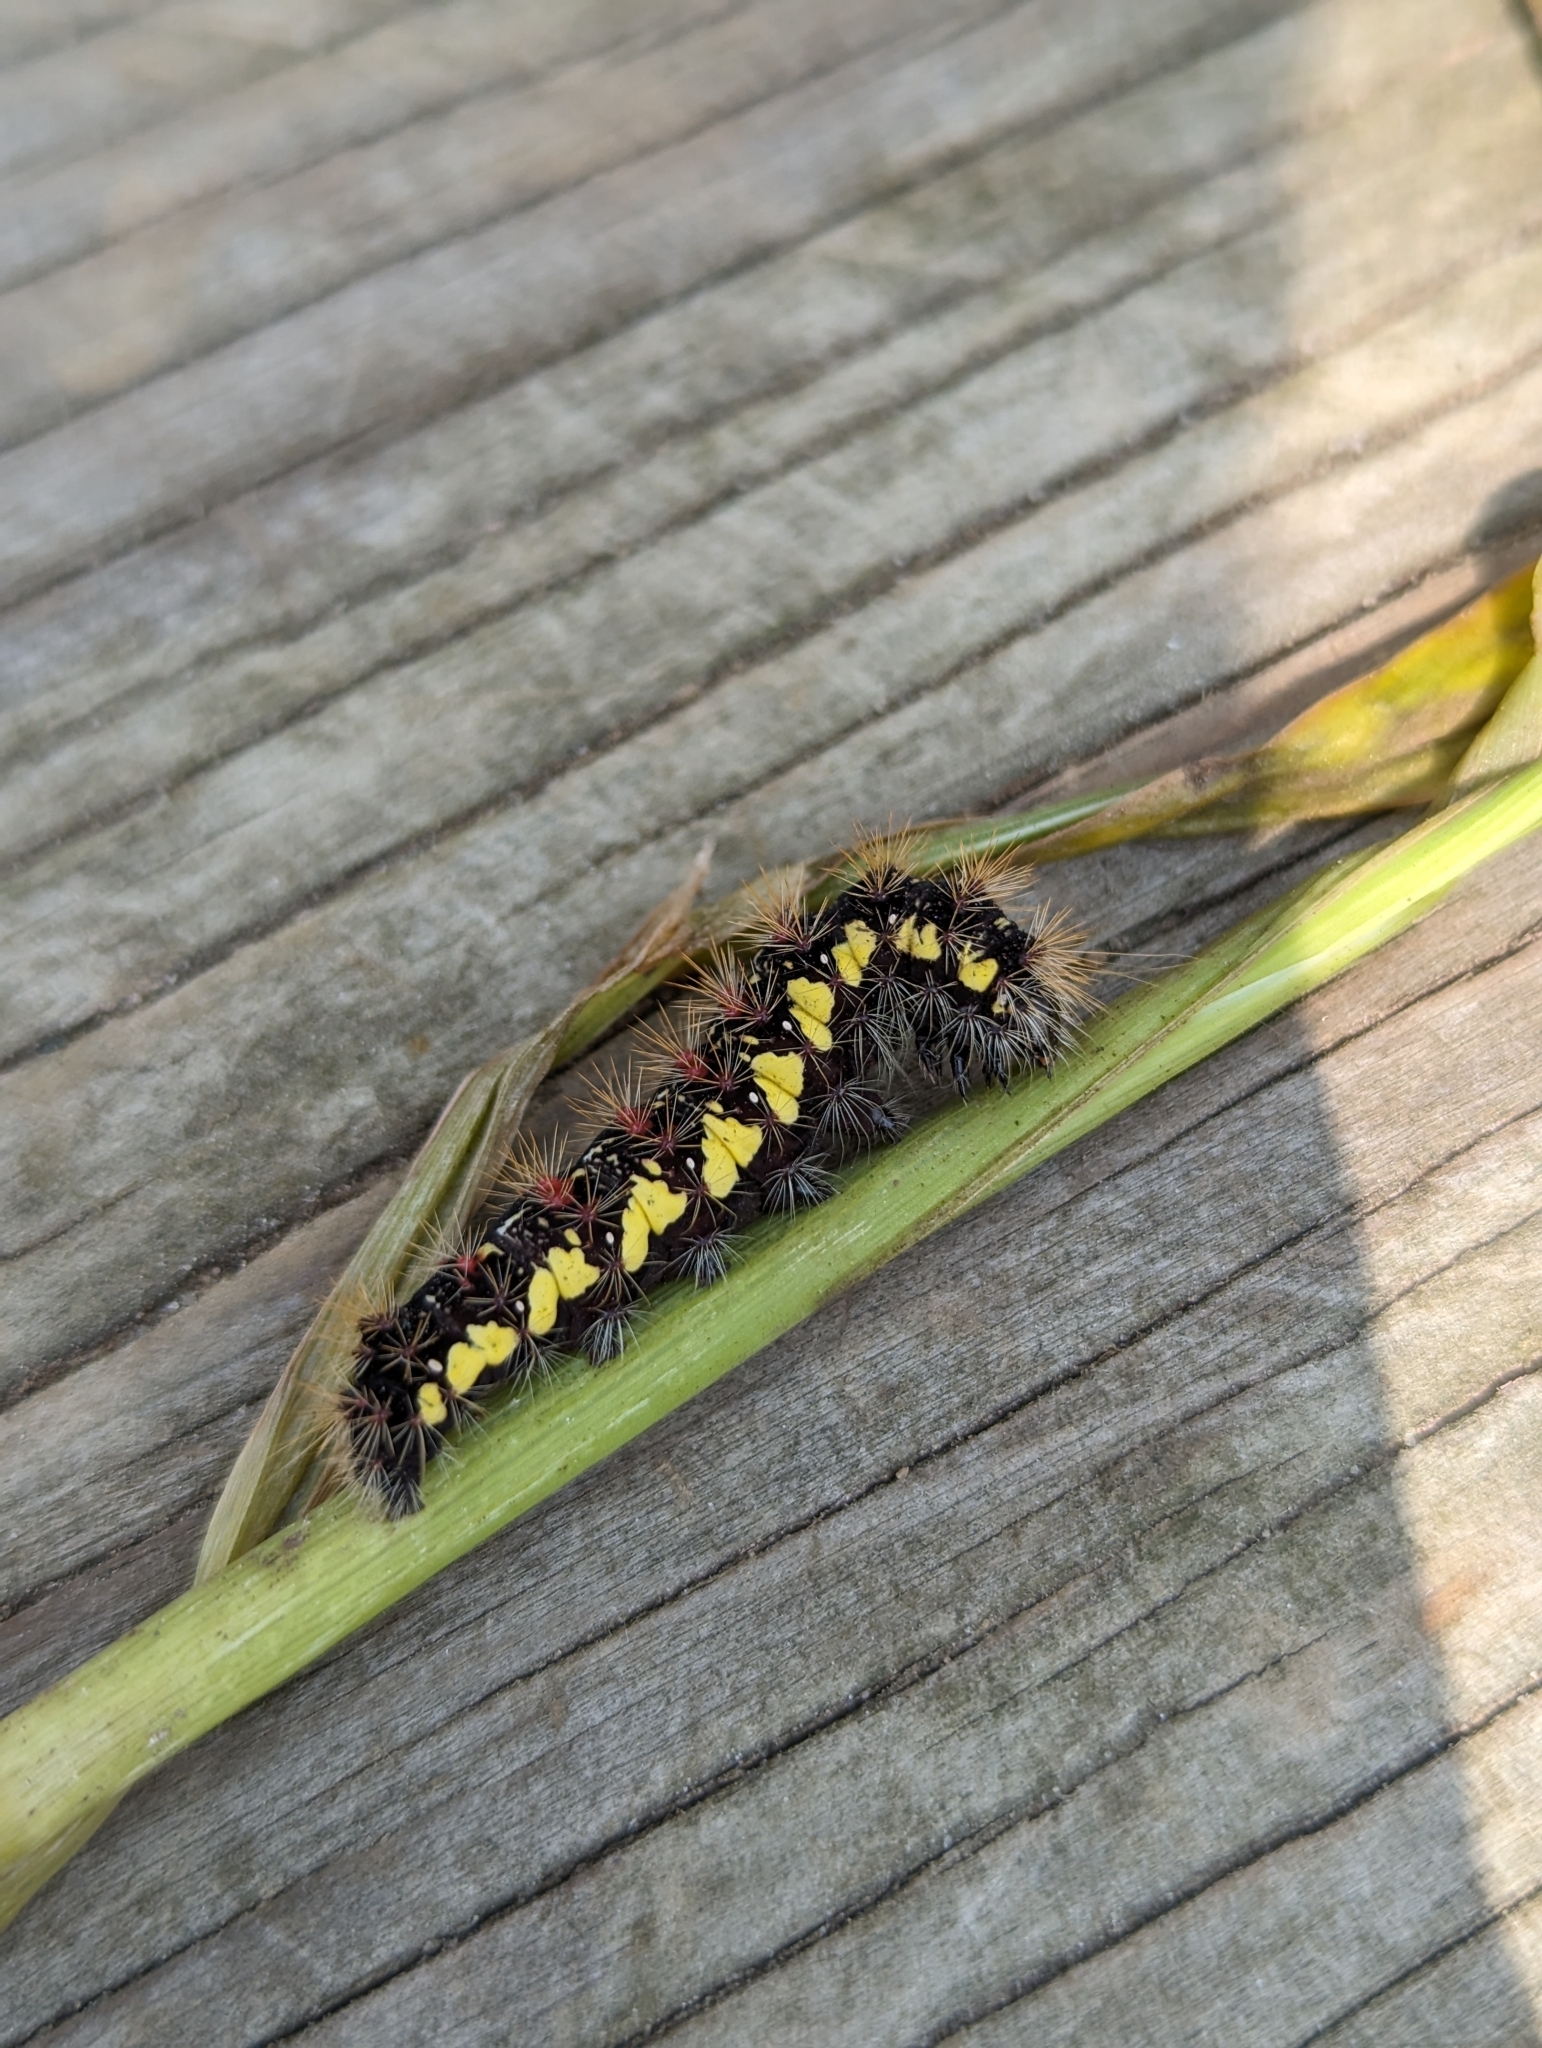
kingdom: Animalia
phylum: Arthropoda
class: Insecta
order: Lepidoptera
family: Noctuidae
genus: Acronicta
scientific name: Acronicta oblinita
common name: Smeared dagger
